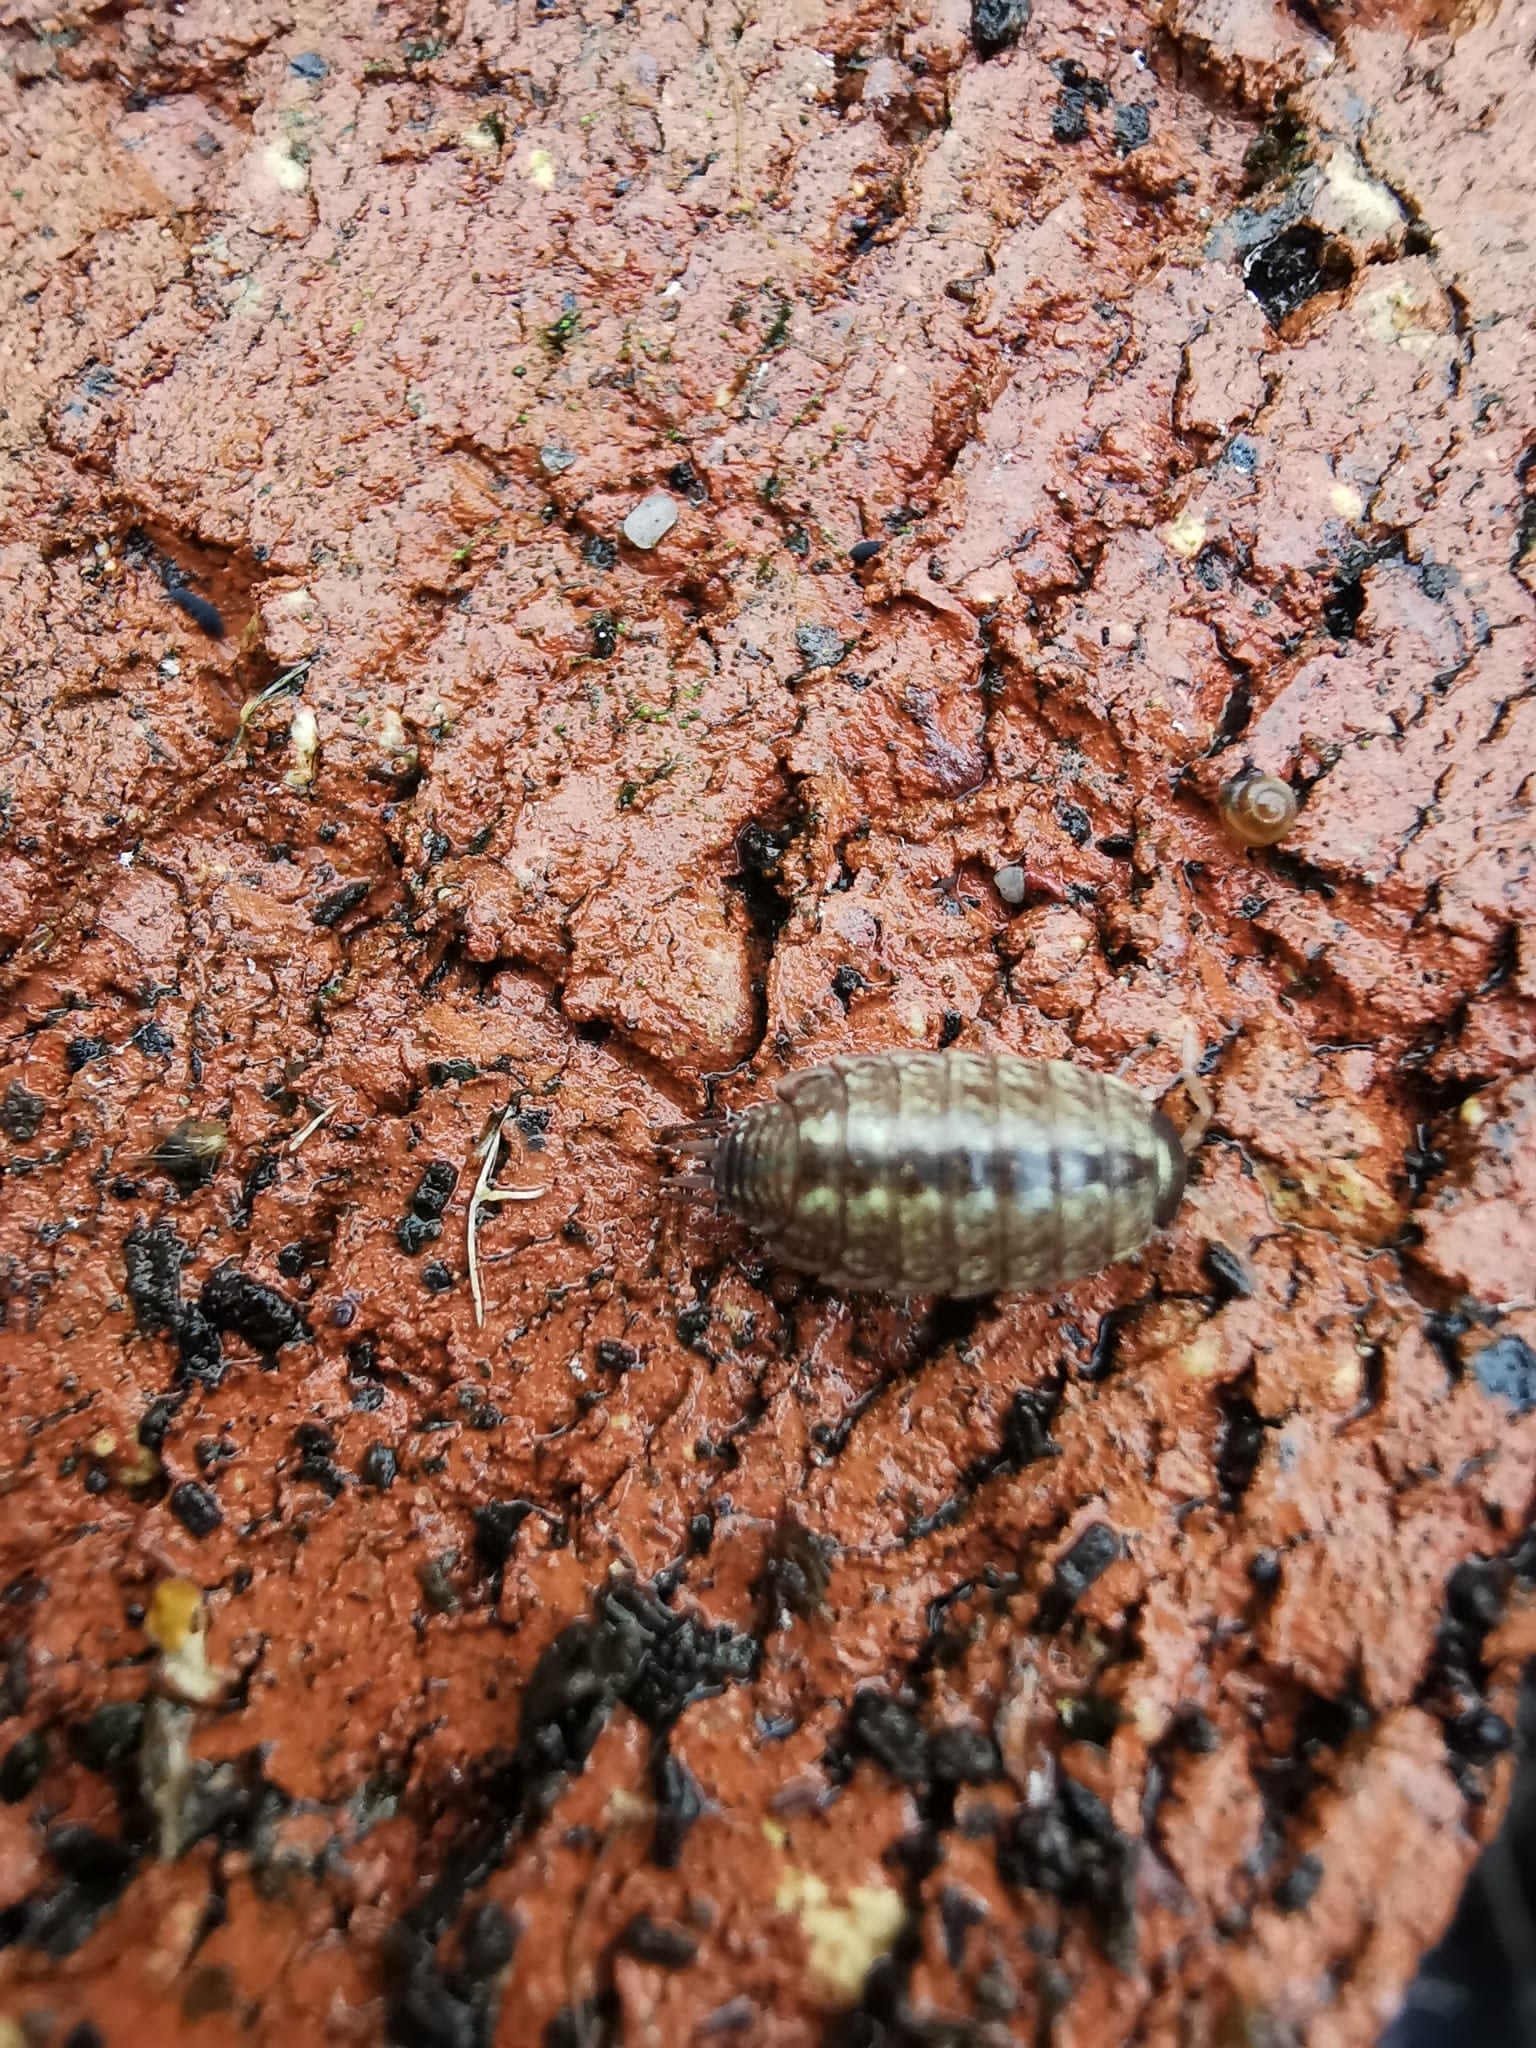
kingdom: Animalia
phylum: Arthropoda
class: Malacostraca
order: Isopoda
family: Philosciidae
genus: Philoscia
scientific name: Philoscia muscorum
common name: Common striped woodlouse
